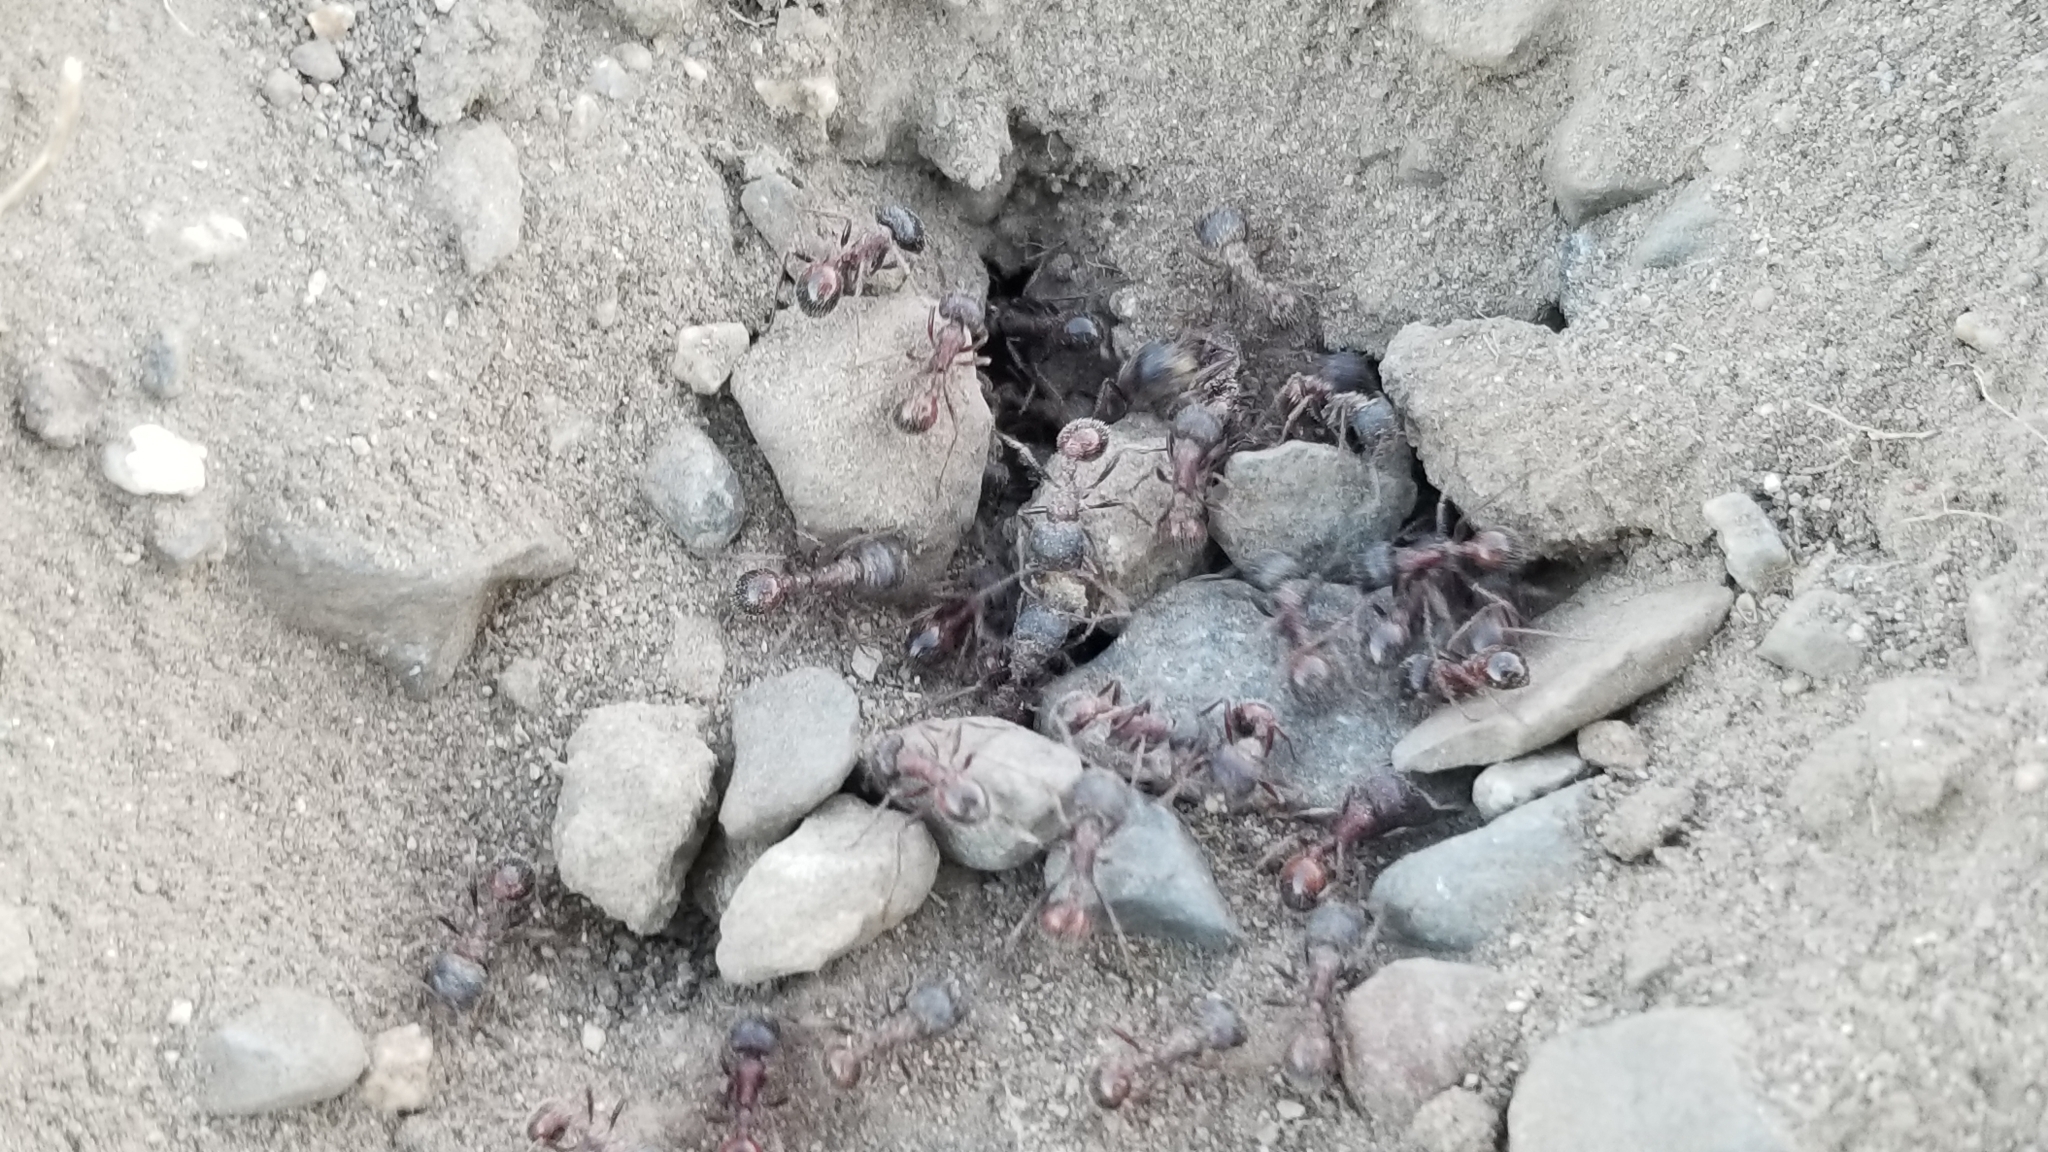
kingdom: Animalia
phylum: Arthropoda
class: Insecta
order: Hymenoptera
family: Formicidae
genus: Pogonomyrmex
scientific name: Pogonomyrmex rugosus
